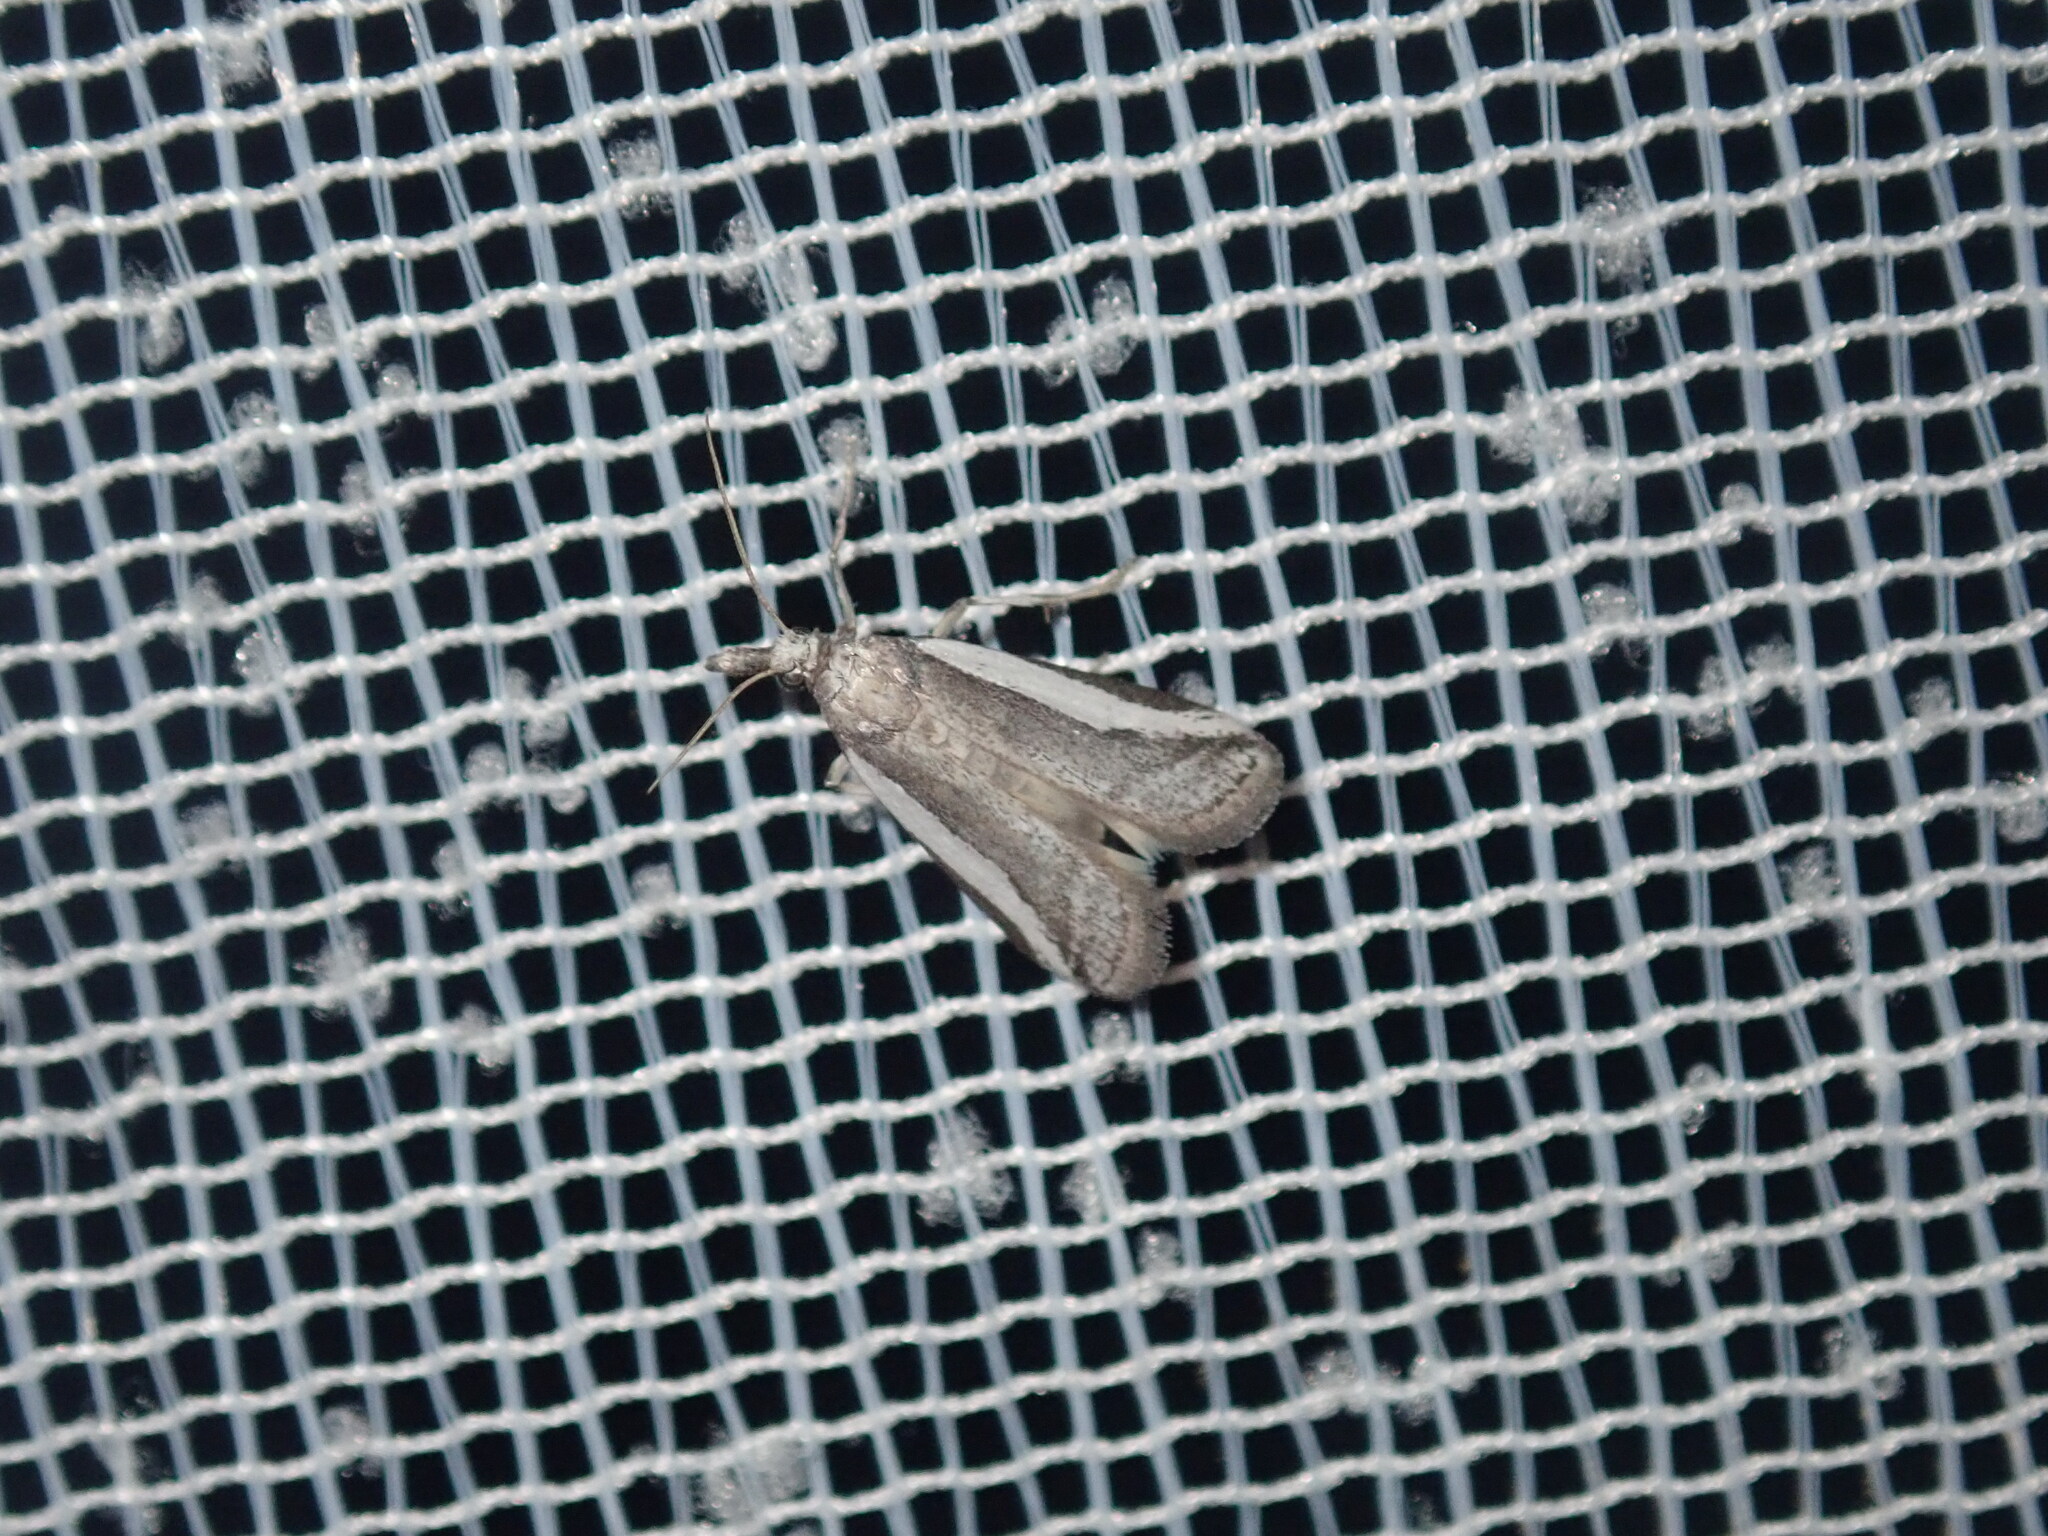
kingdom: Animalia
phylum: Arthropoda
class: Insecta
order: Lepidoptera
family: Pyralidae
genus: Euageta
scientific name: Euageta dianipha
